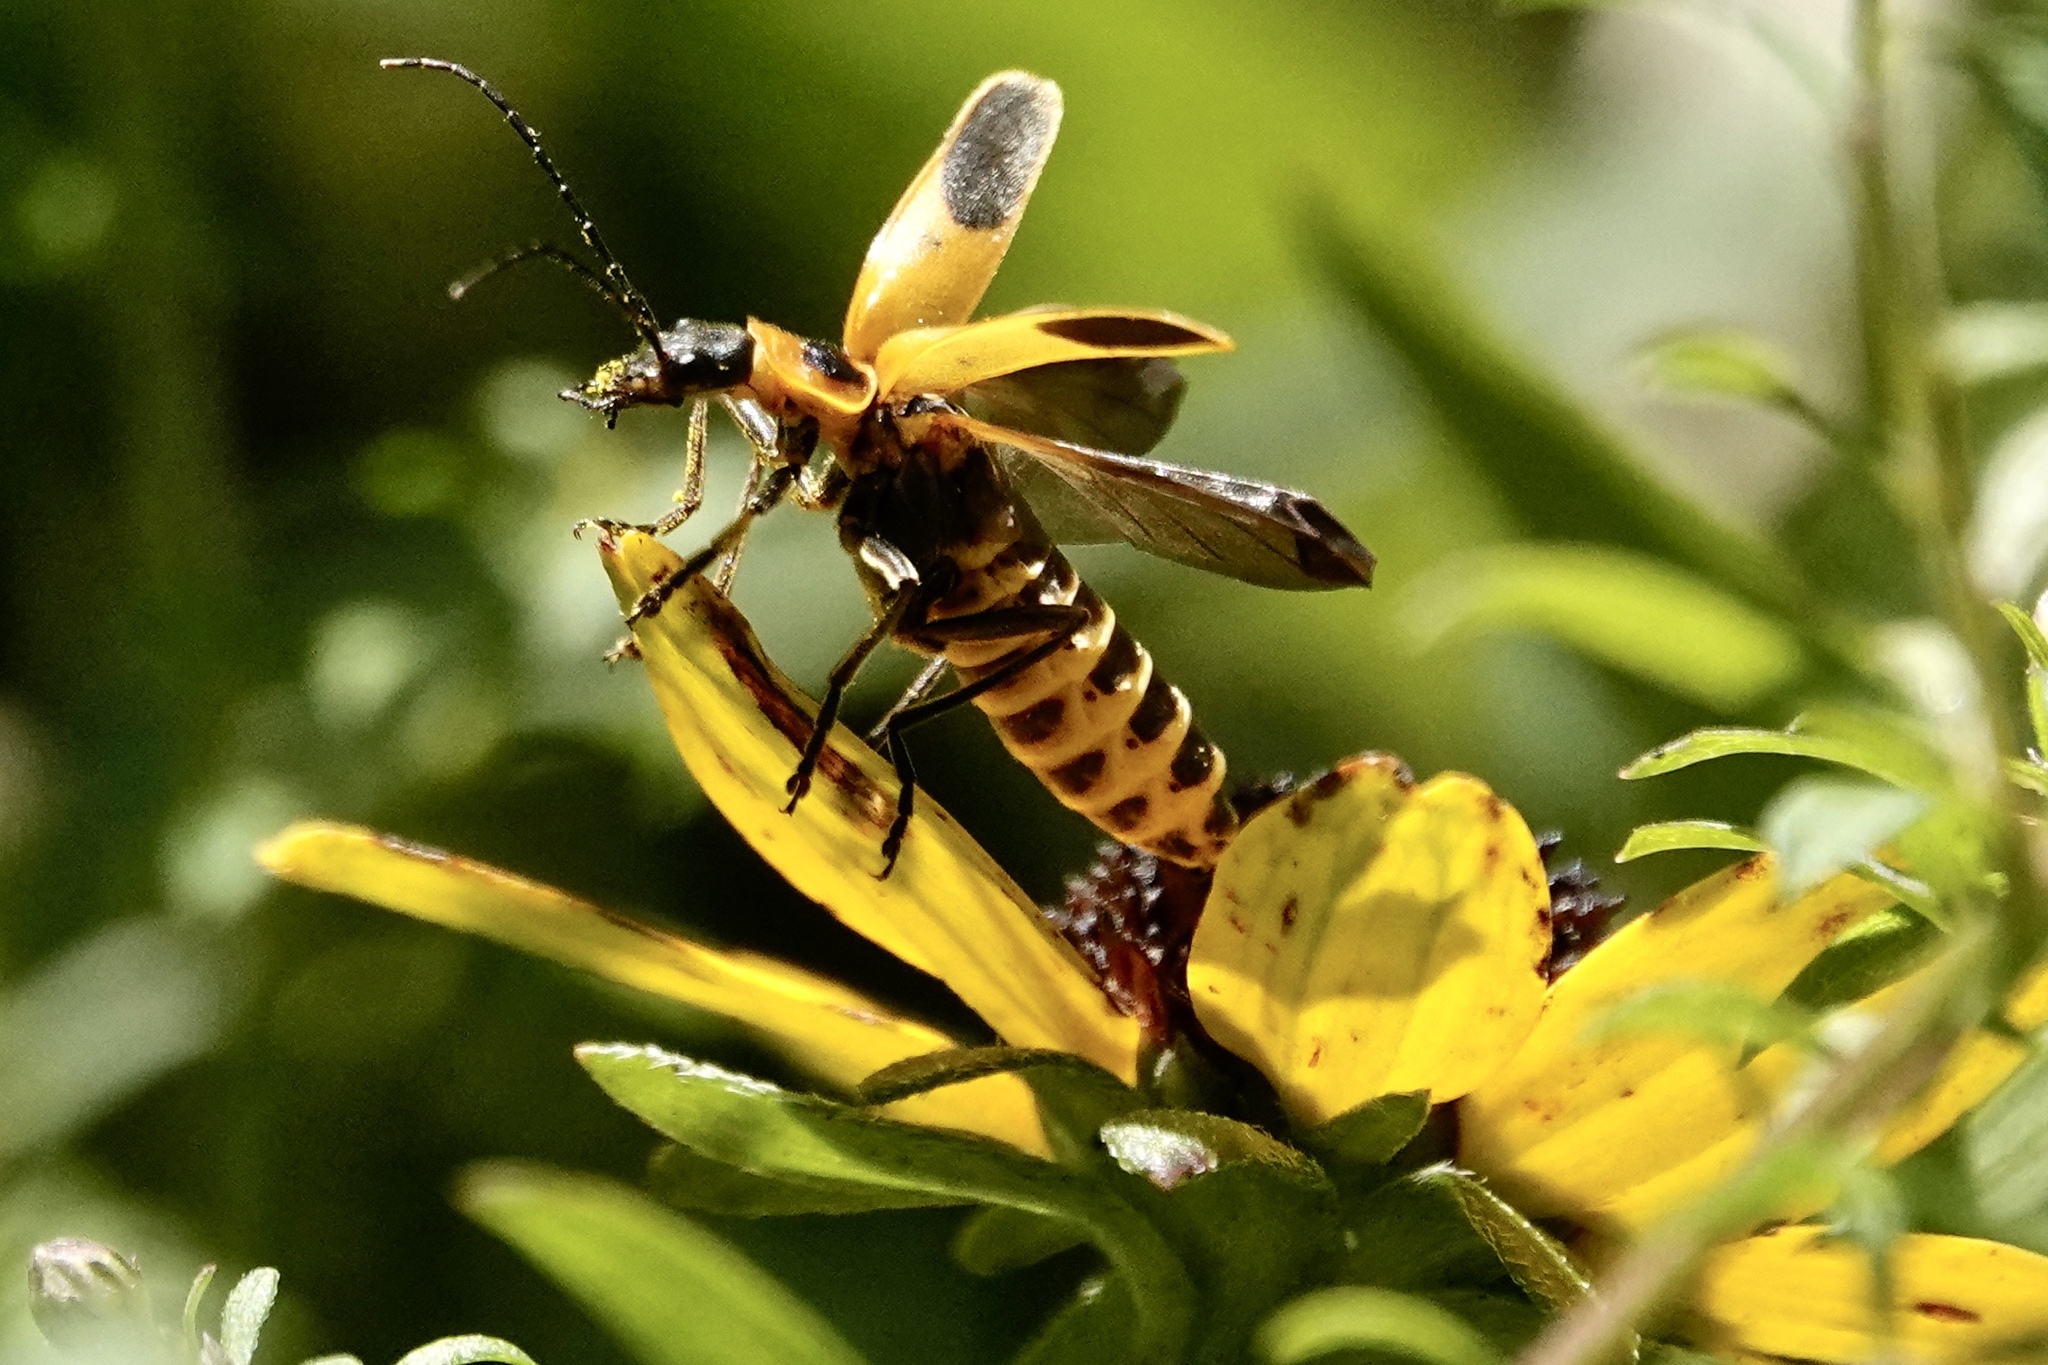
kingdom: Animalia
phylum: Arthropoda
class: Insecta
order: Coleoptera
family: Cantharidae
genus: Chauliognathus
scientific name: Chauliognathus pensylvanicus
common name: Goldenrod soldier beetle
